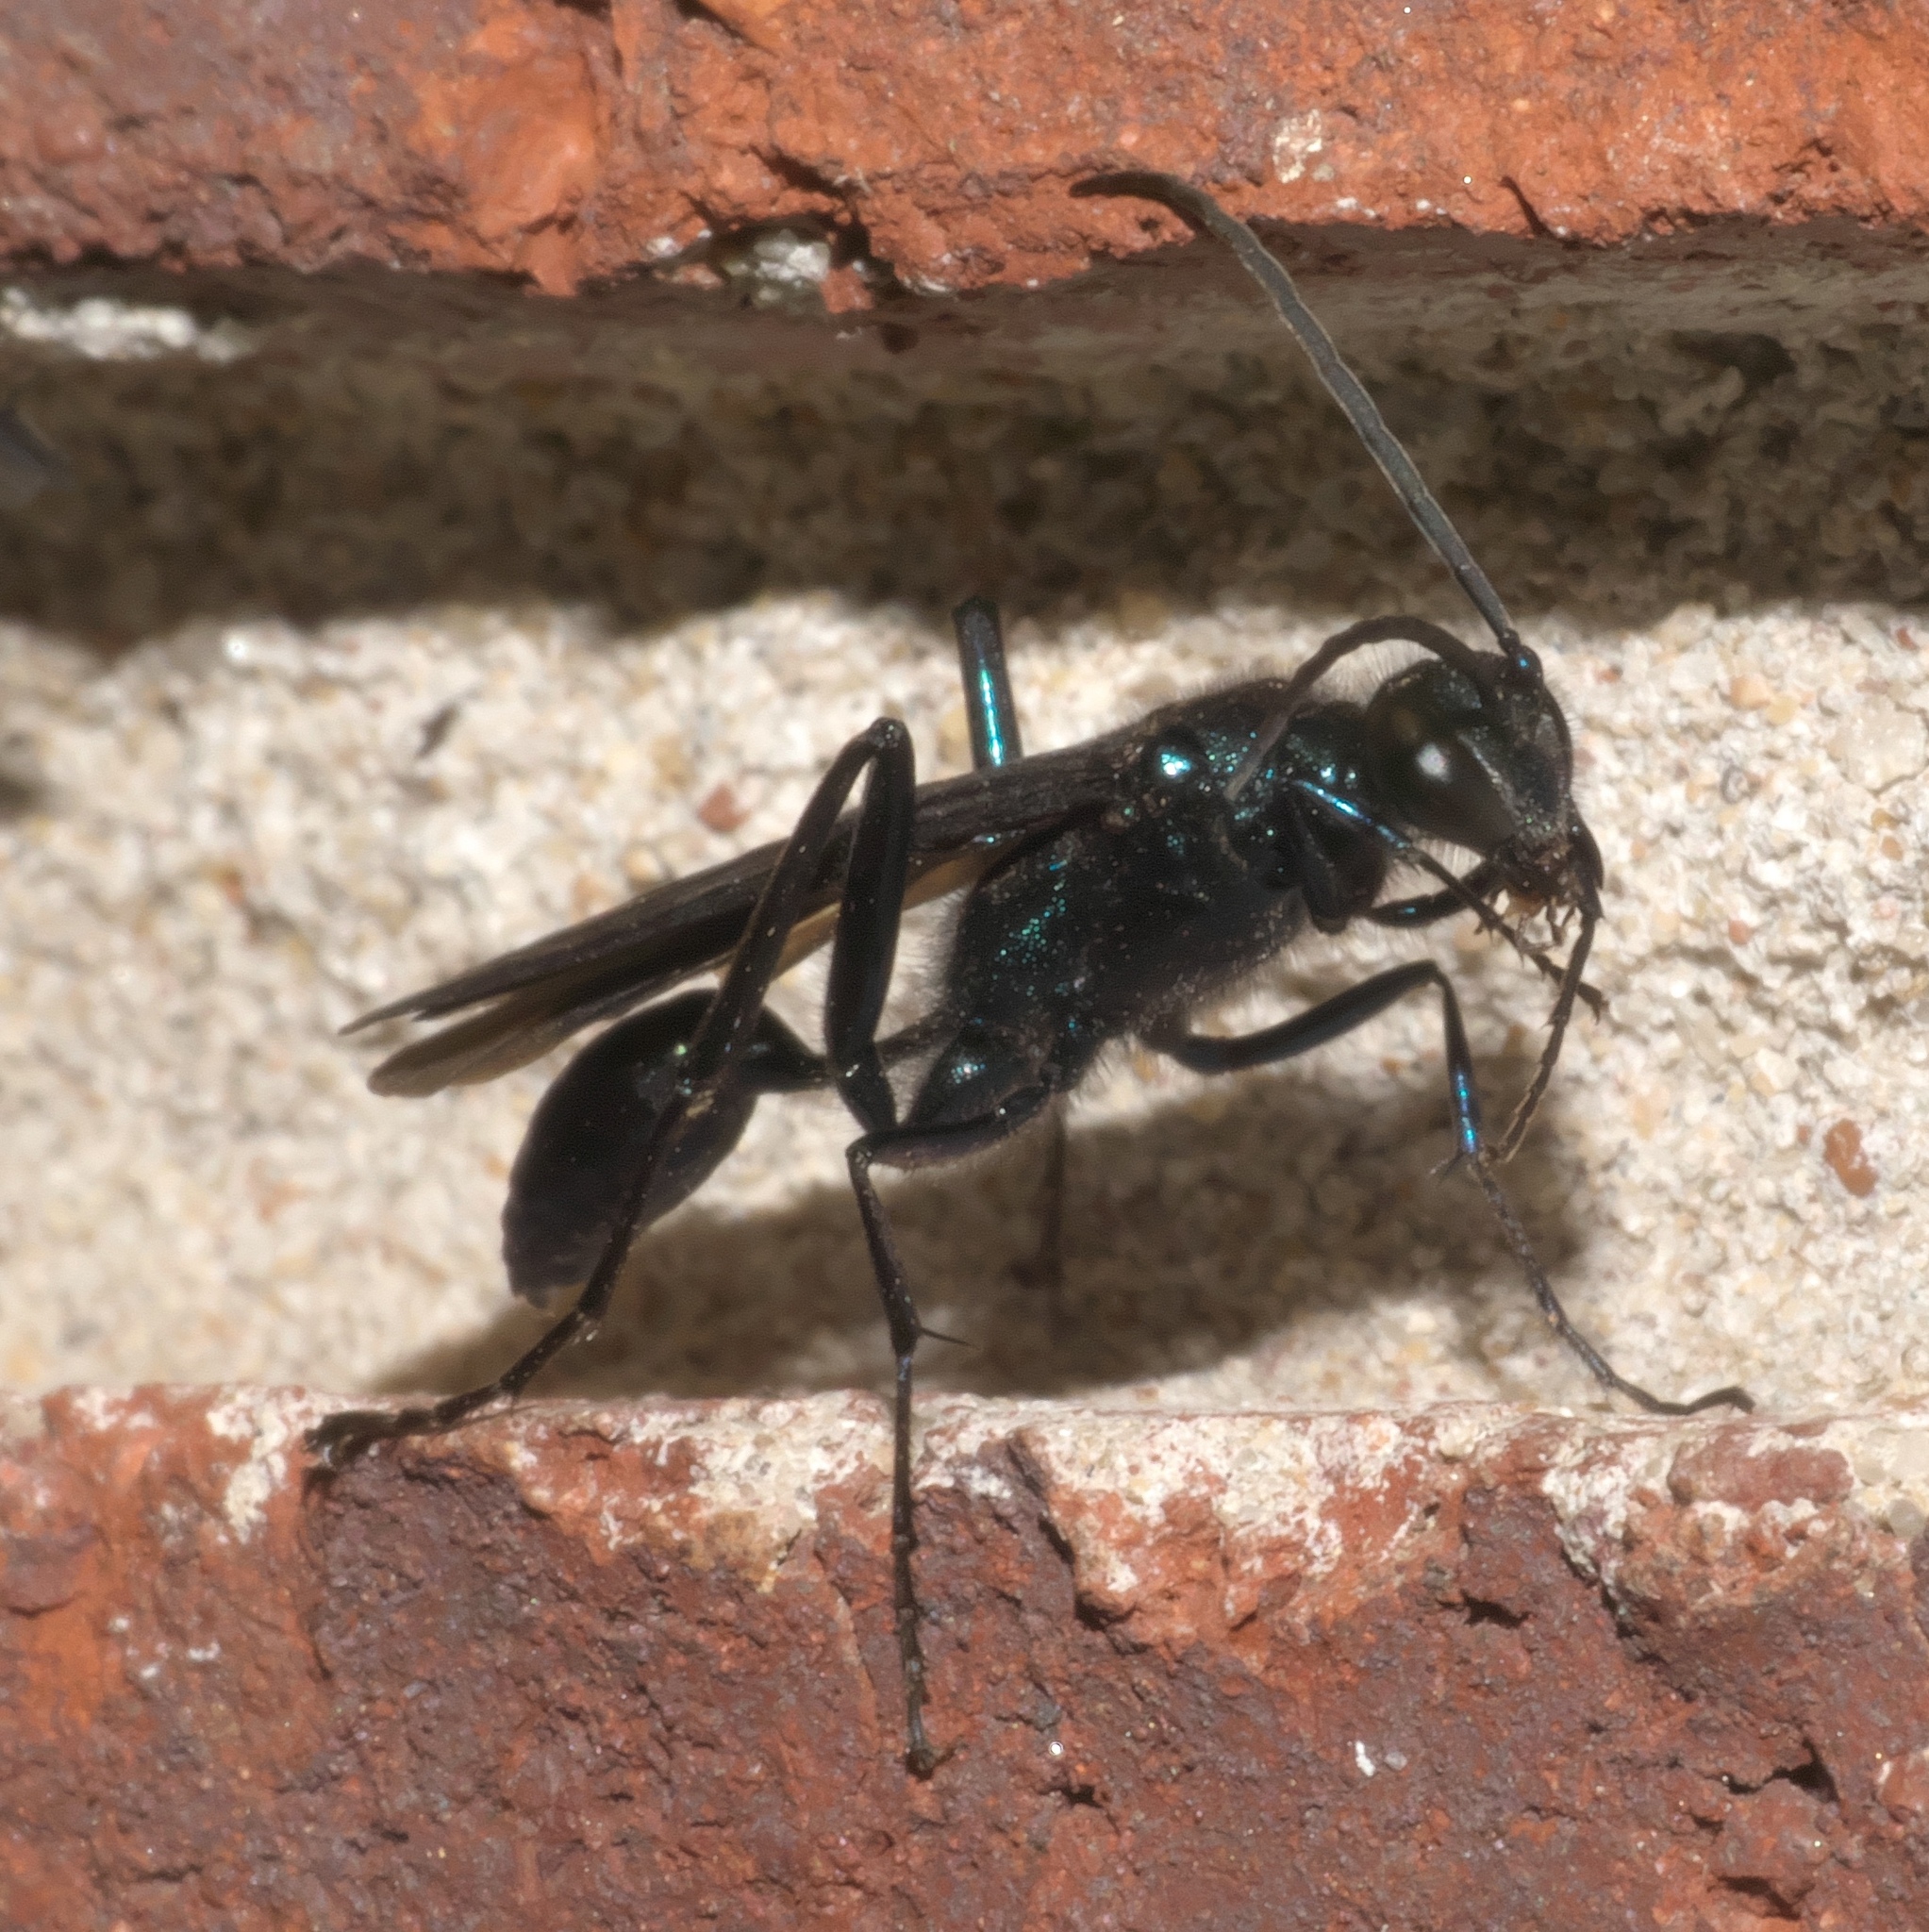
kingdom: Animalia
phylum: Arthropoda
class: Insecta
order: Hymenoptera
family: Sphecidae
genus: Chalybion
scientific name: Chalybion californicum
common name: Mud dauber
